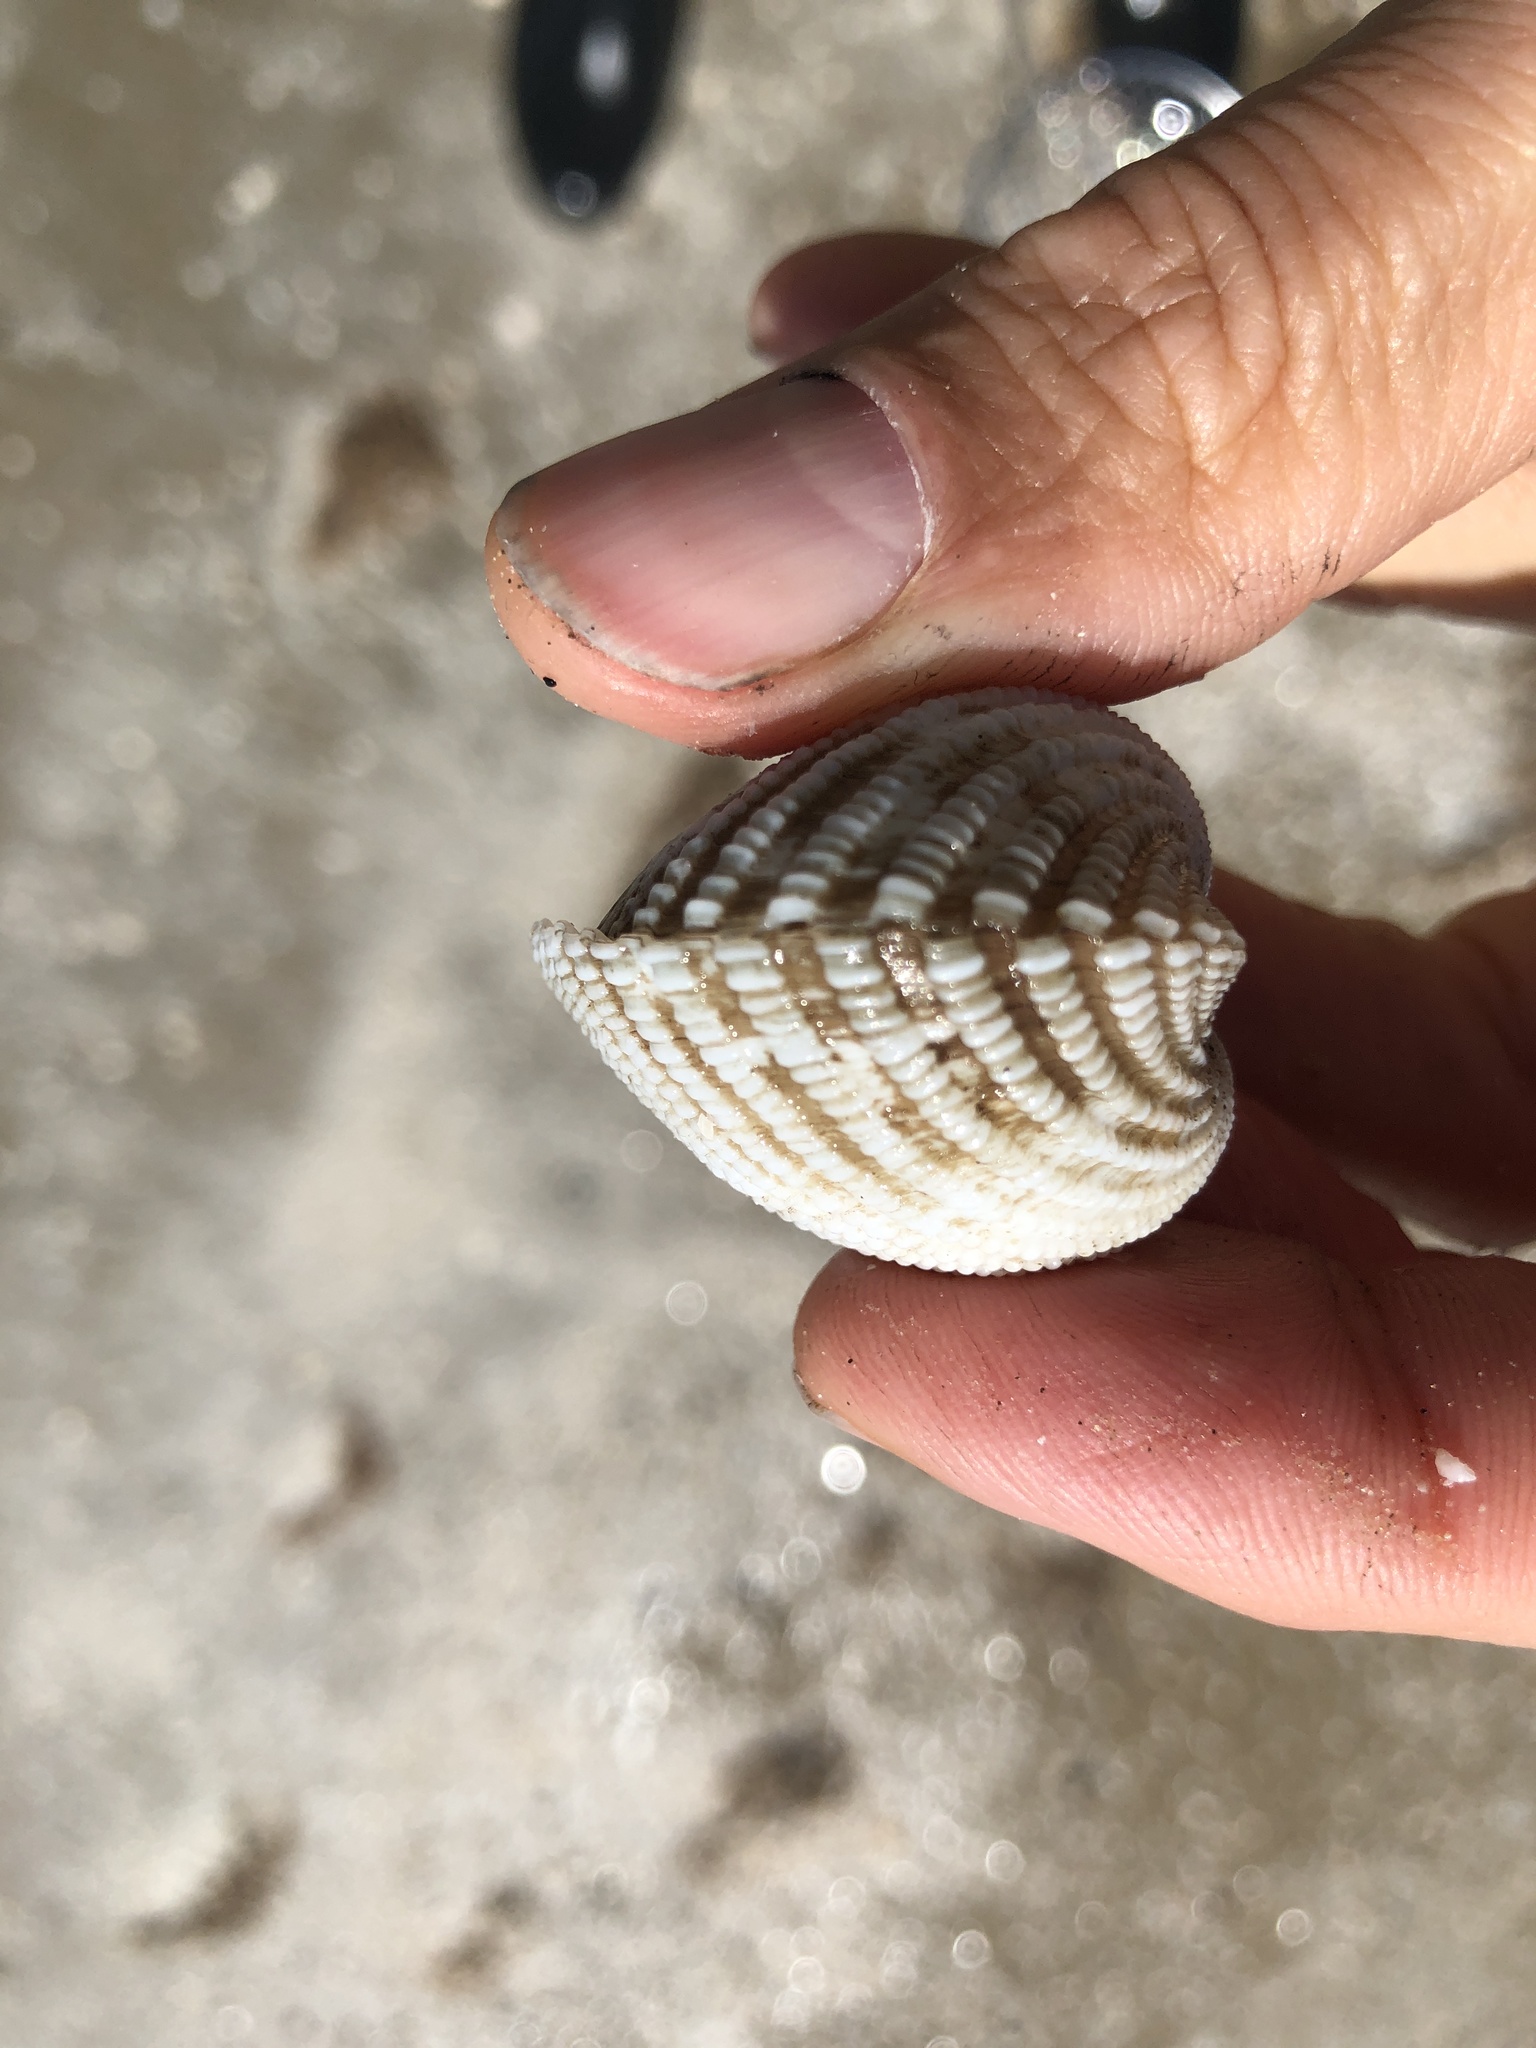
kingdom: Animalia
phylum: Mollusca
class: Bivalvia
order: Arcida
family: Arcidae
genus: Anadara
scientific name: Anadara brasiliana
